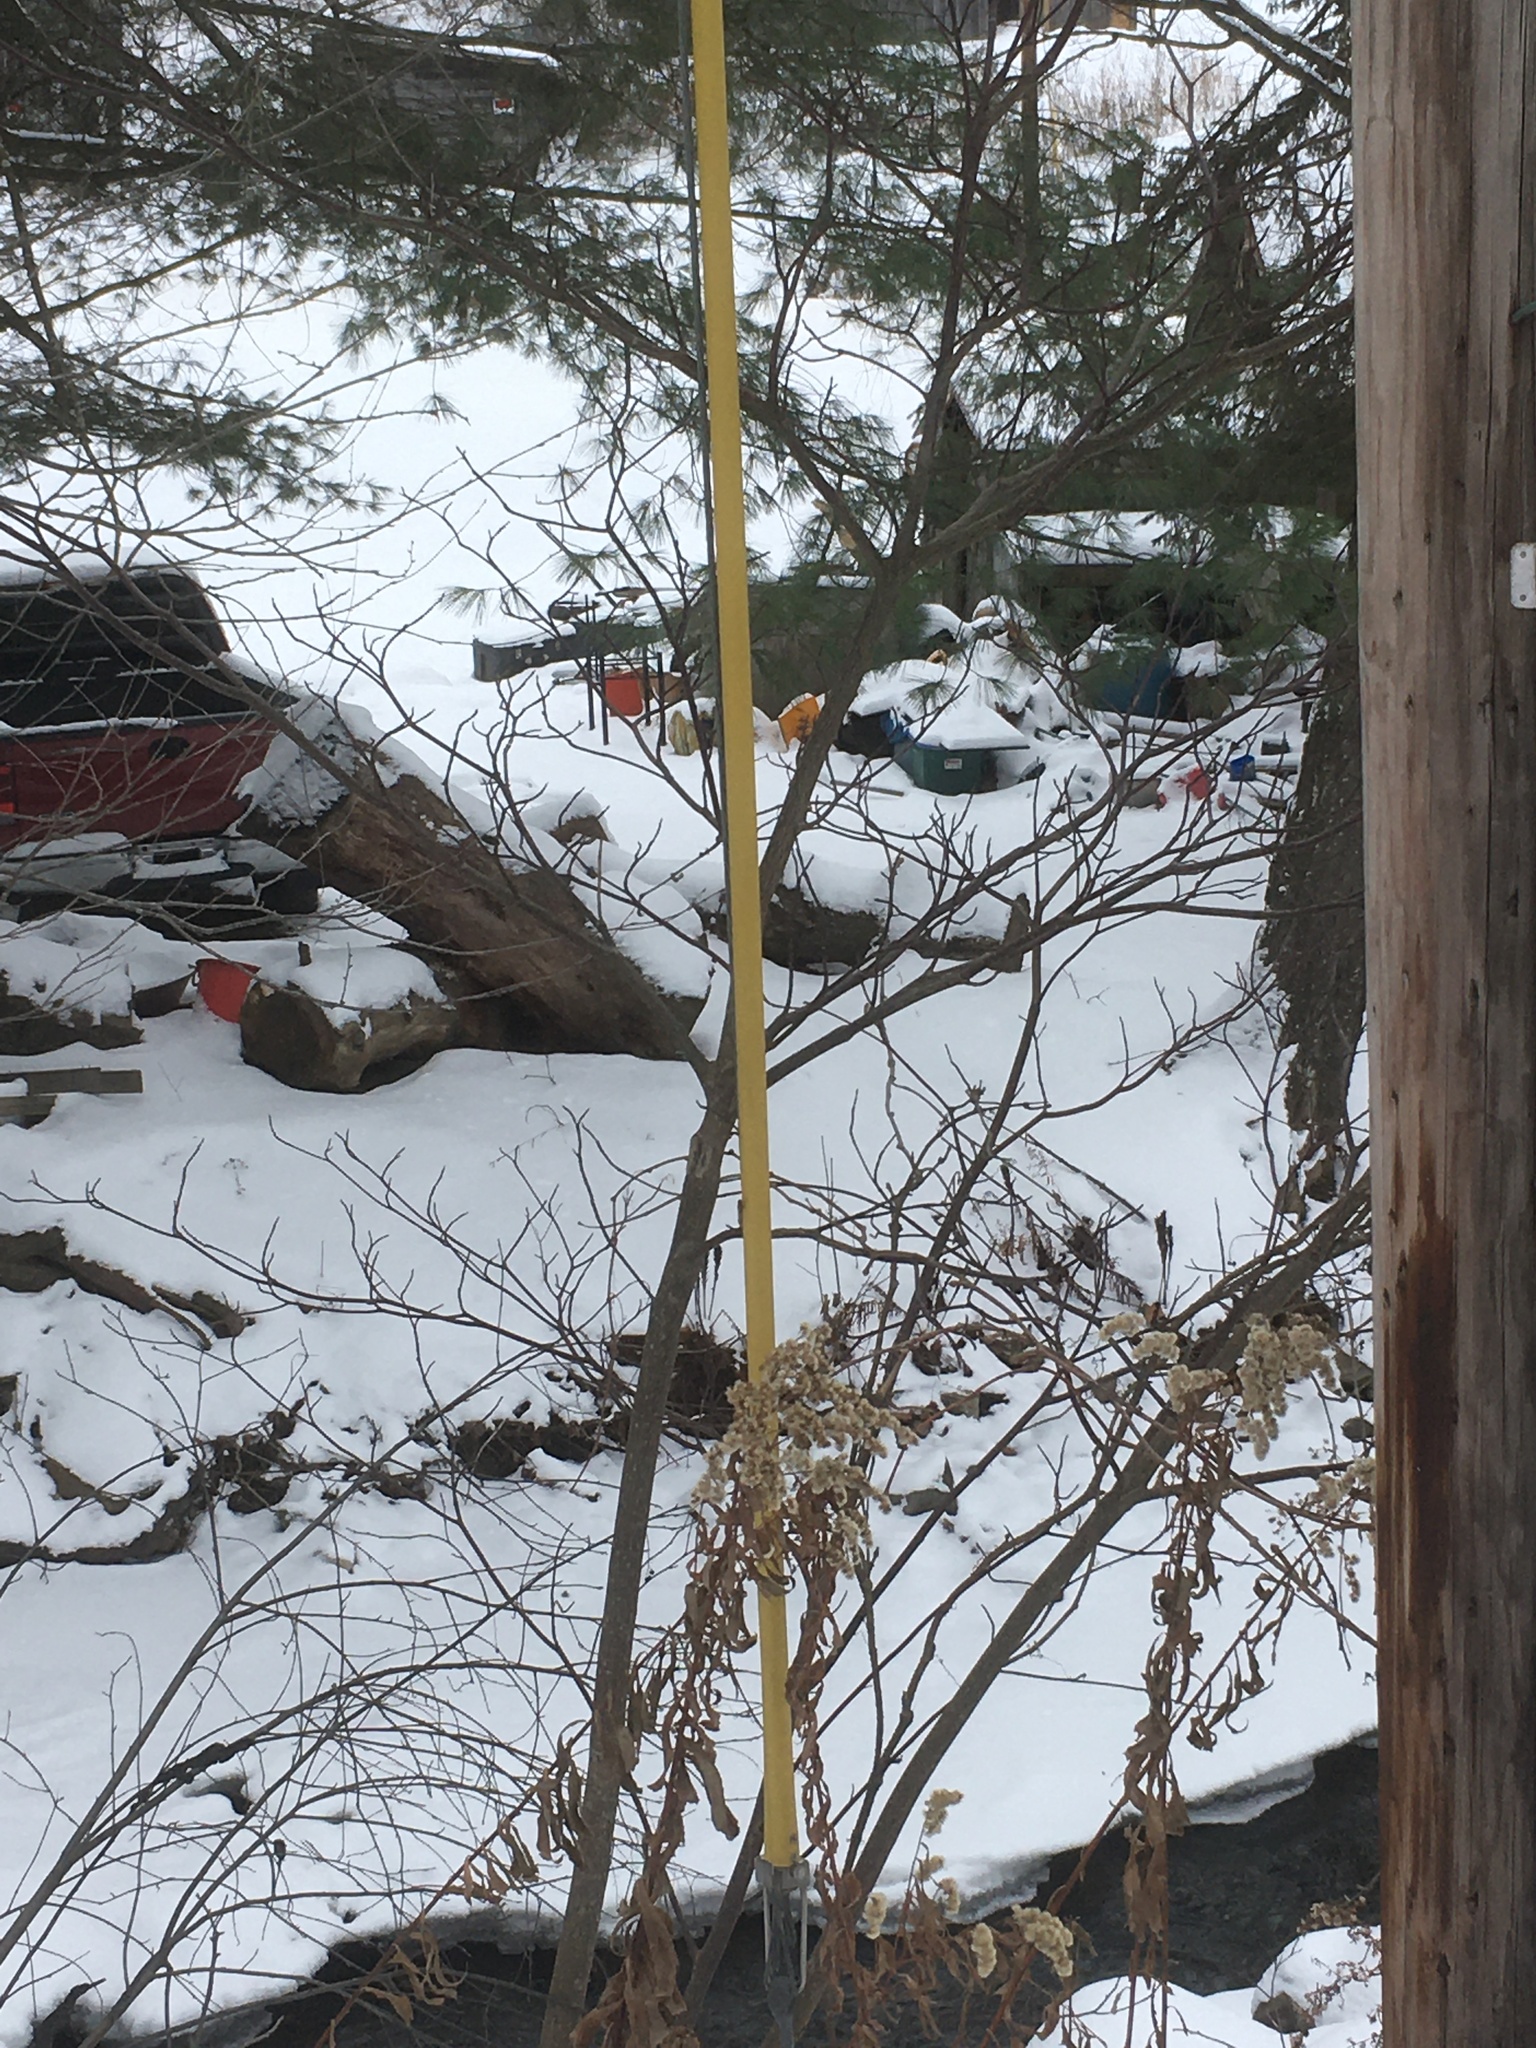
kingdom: Plantae
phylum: Tracheophyta
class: Magnoliopsida
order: Cornales
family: Cornaceae
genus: Cornus
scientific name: Cornus alternifolia
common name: Pagoda dogwood
